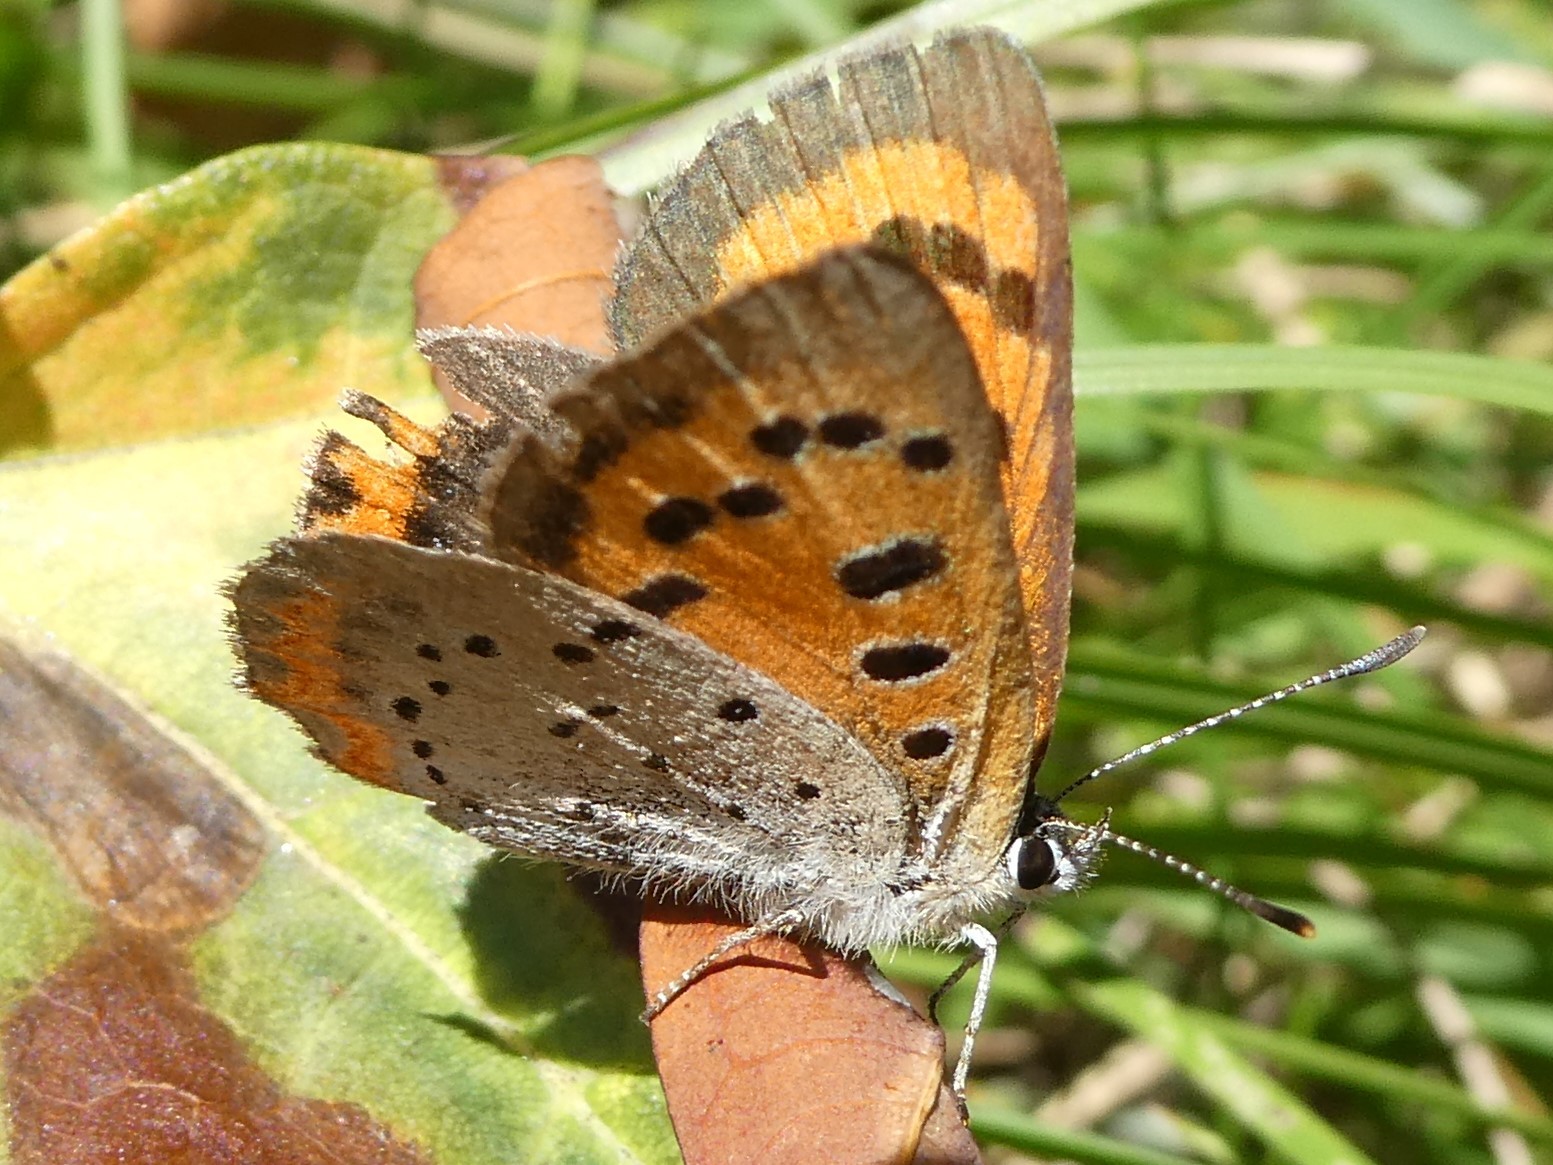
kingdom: Animalia
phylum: Arthropoda
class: Insecta
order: Lepidoptera
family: Lycaenidae
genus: Lycaena
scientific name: Lycaena hypophlaeas
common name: American copper
